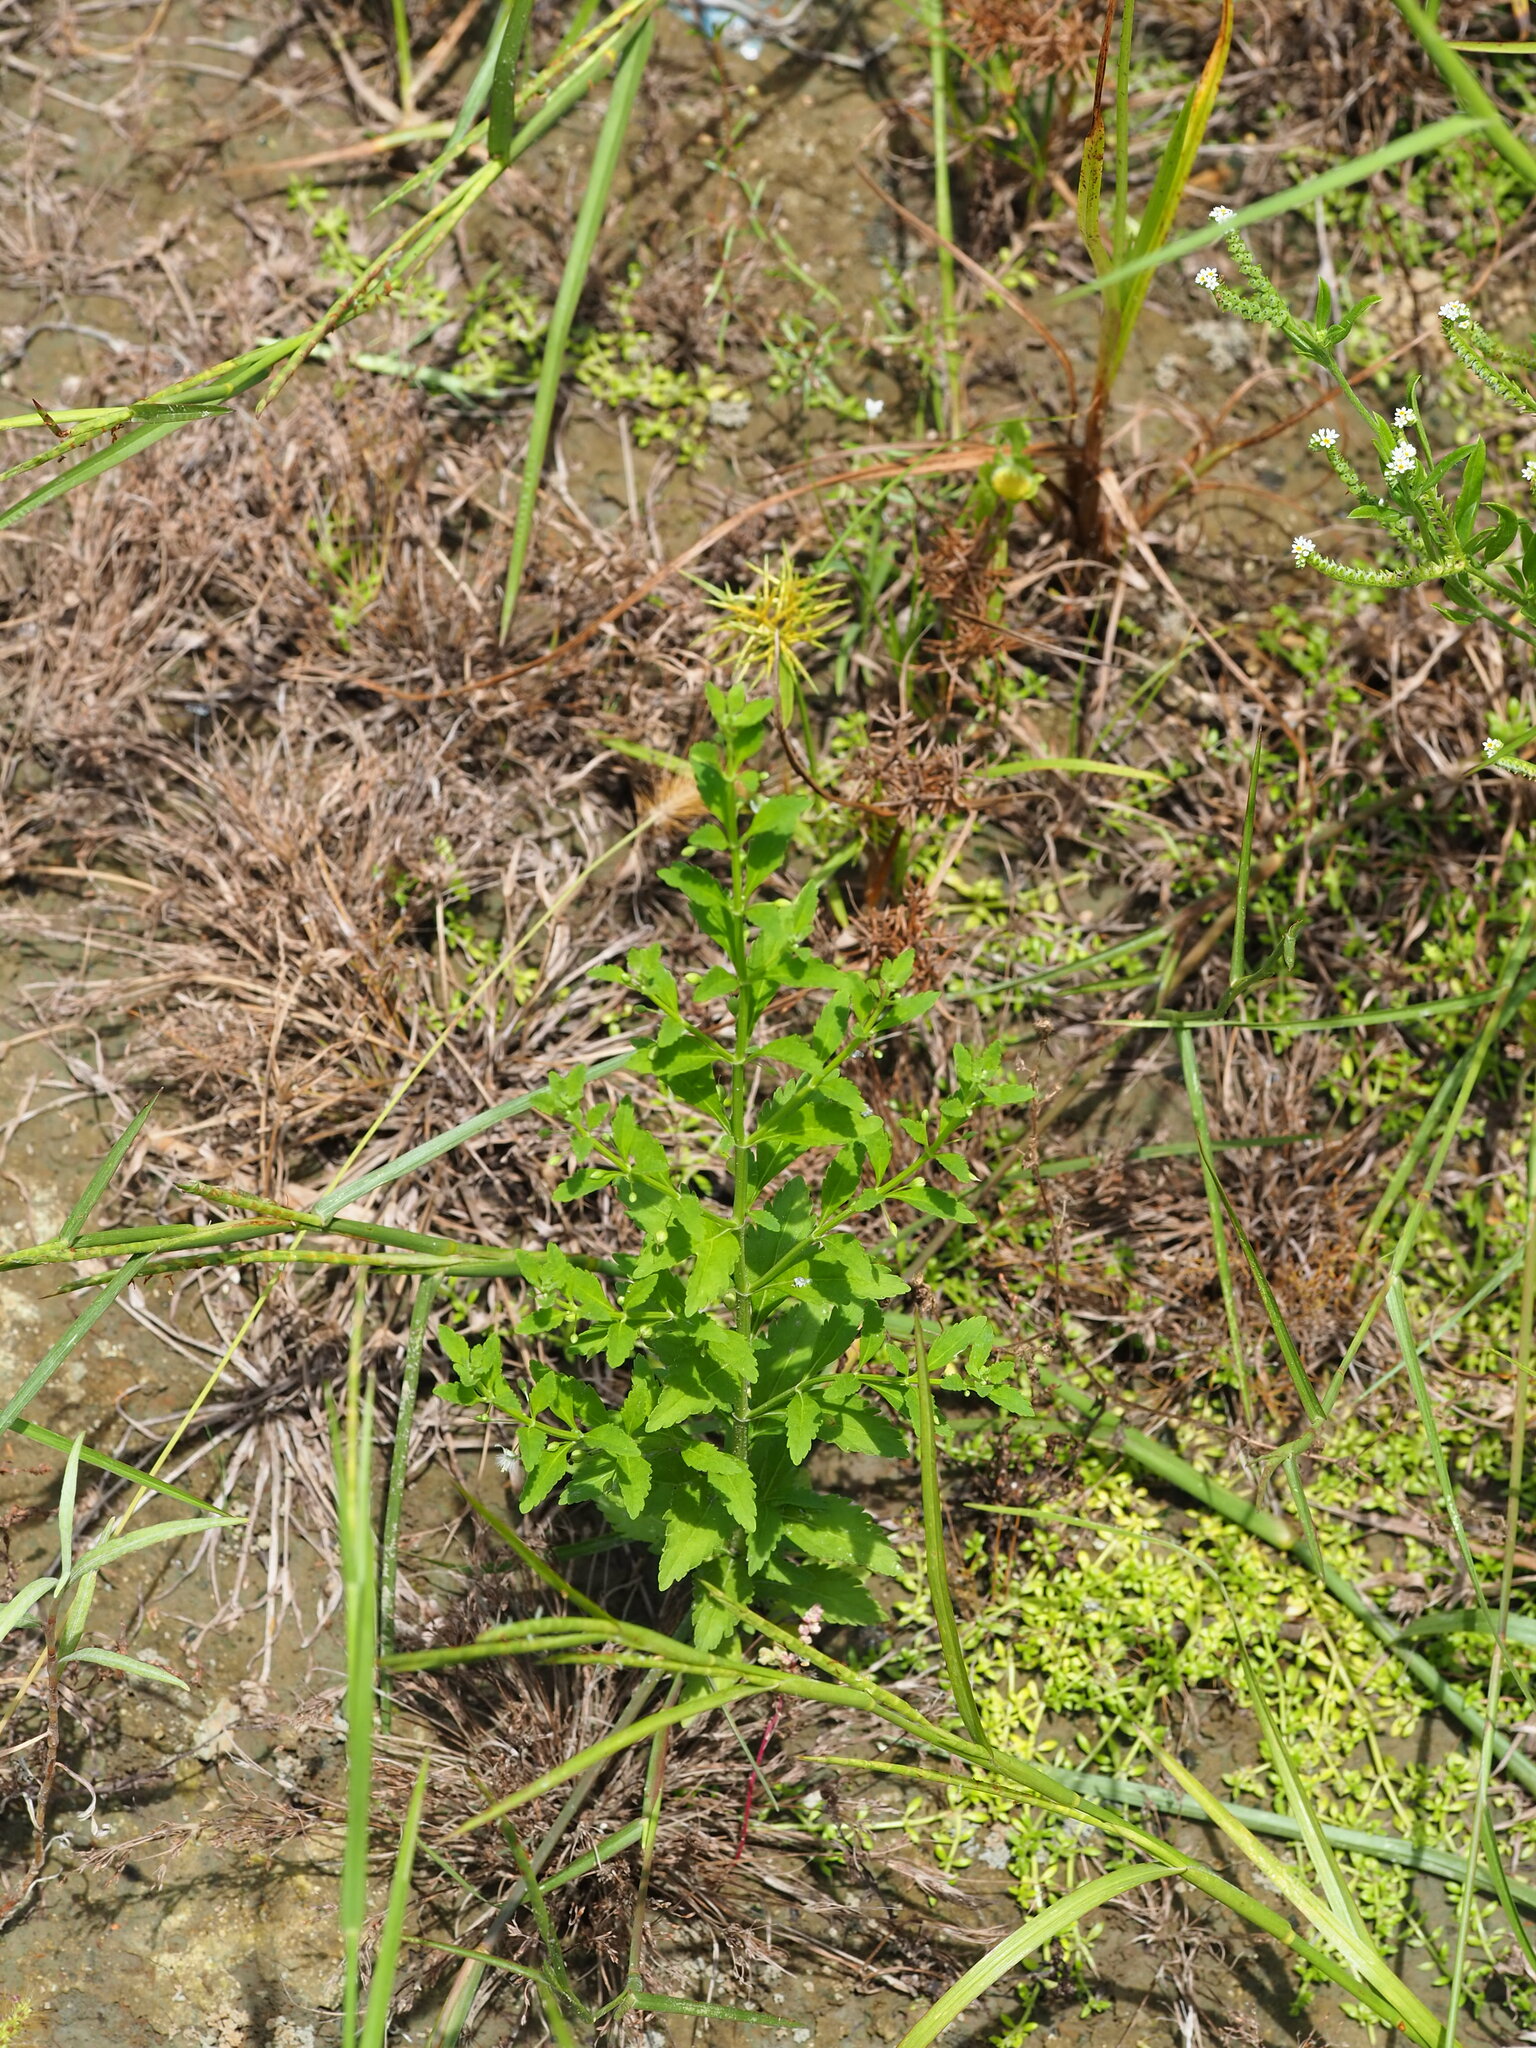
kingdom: Plantae
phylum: Tracheophyta
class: Magnoliopsida
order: Lamiales
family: Plantaginaceae
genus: Scoparia
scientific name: Scoparia dulcis
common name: Scoparia-weed
